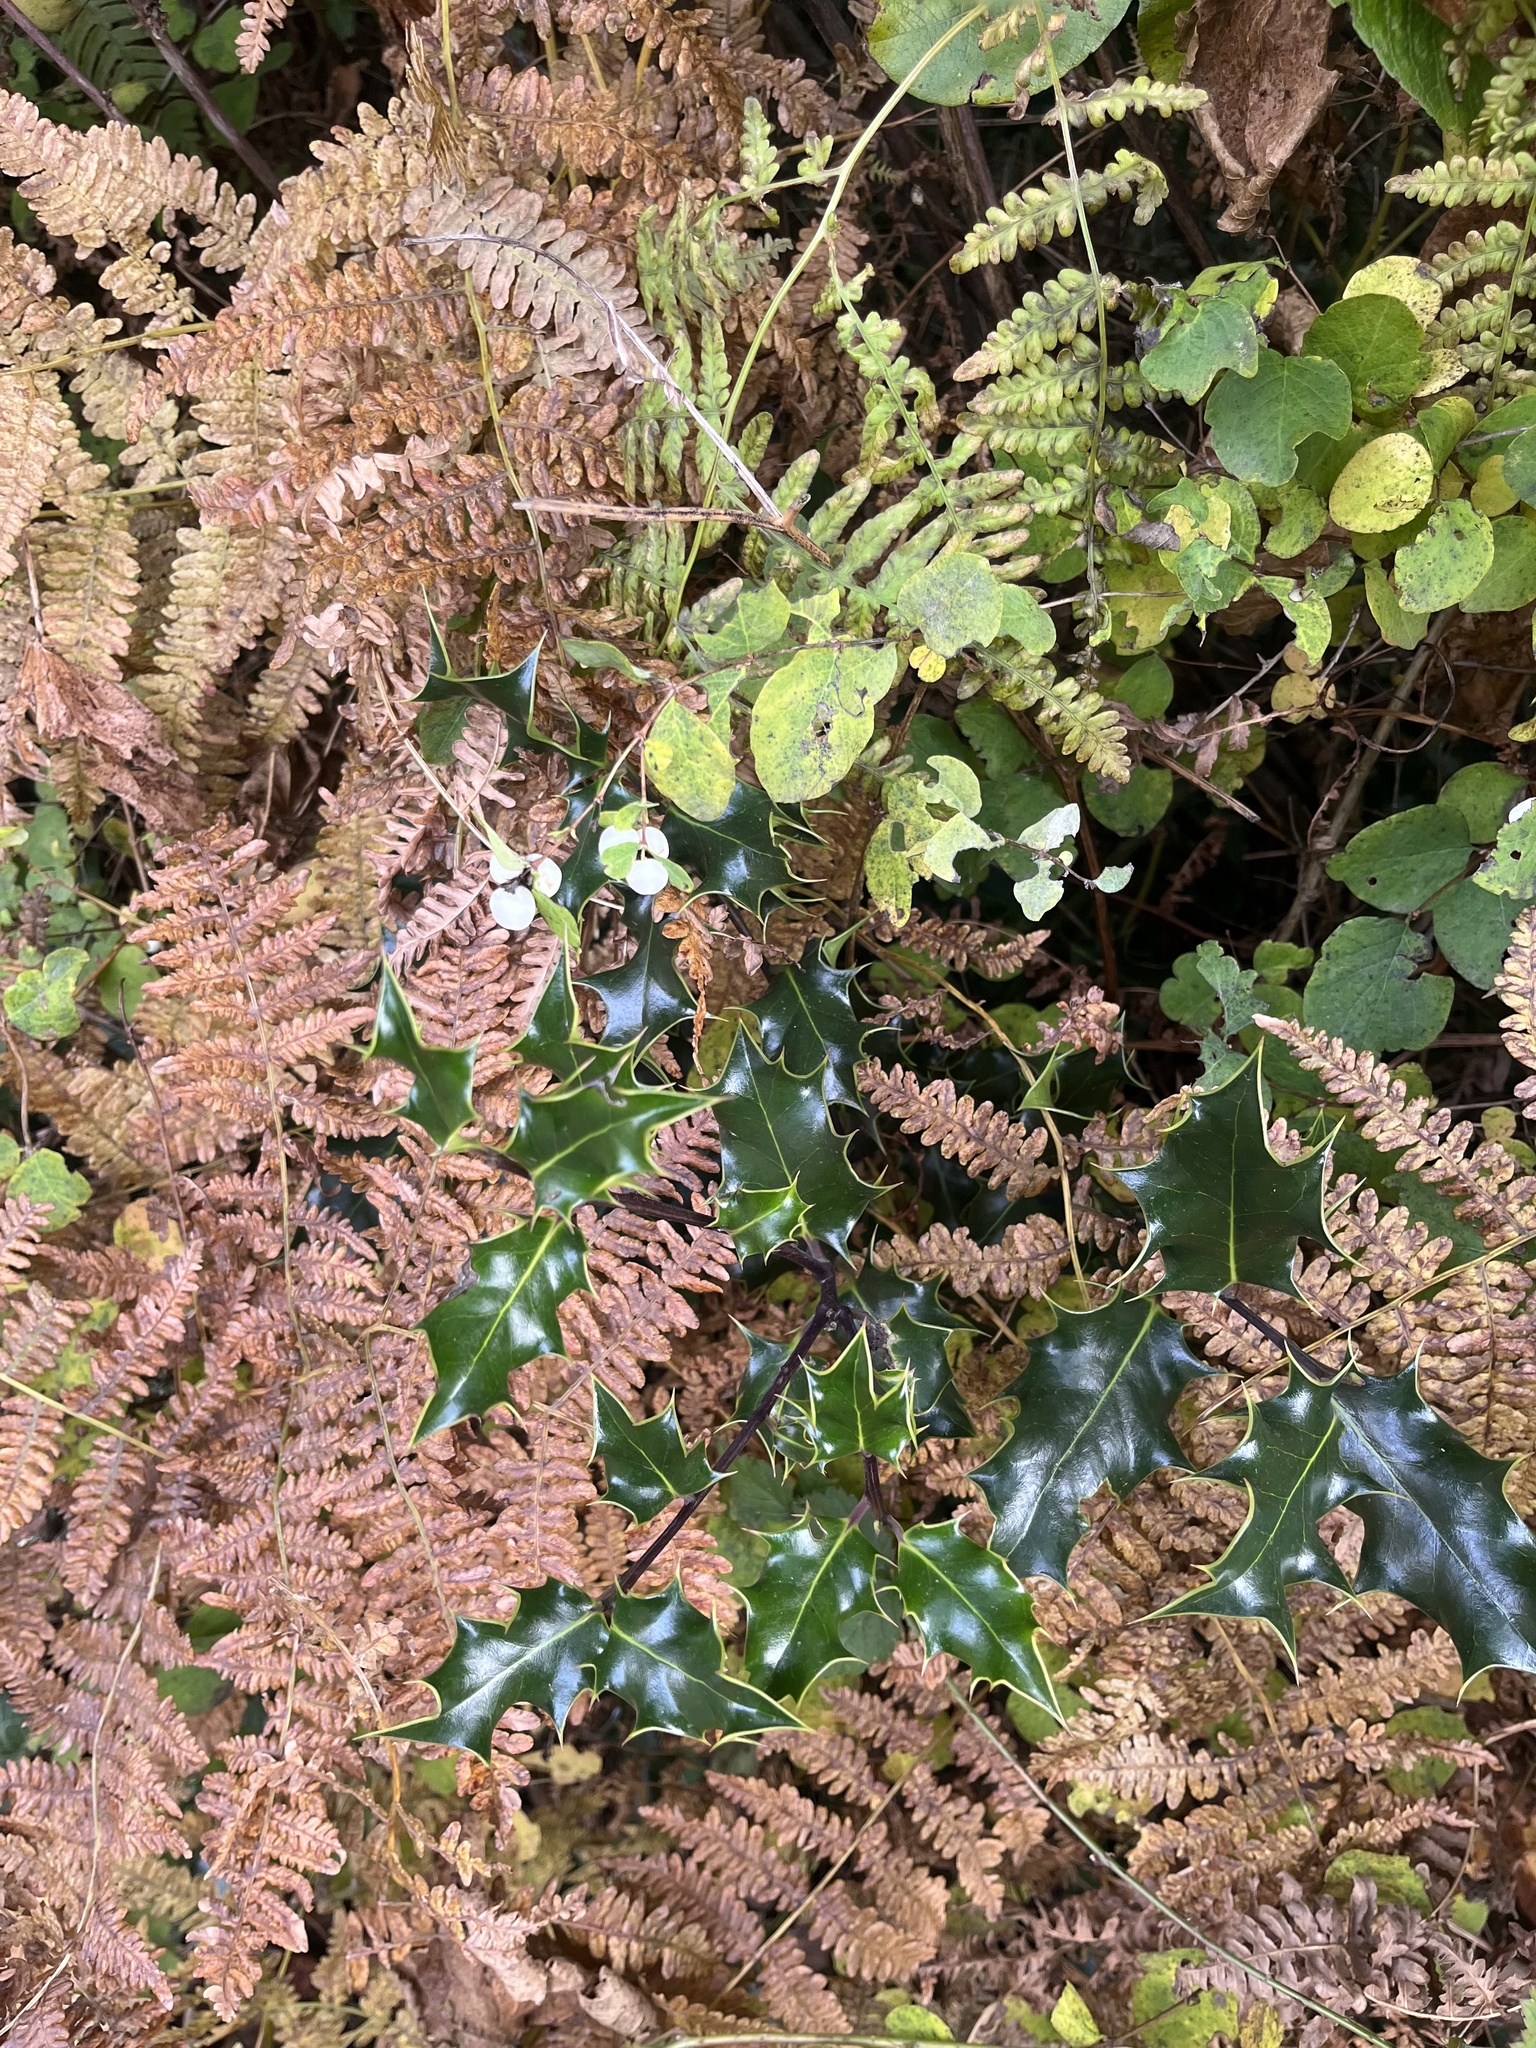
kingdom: Plantae
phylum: Tracheophyta
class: Magnoliopsida
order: Aquifoliales
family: Aquifoliaceae
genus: Ilex
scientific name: Ilex aquifolium
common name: English holly
